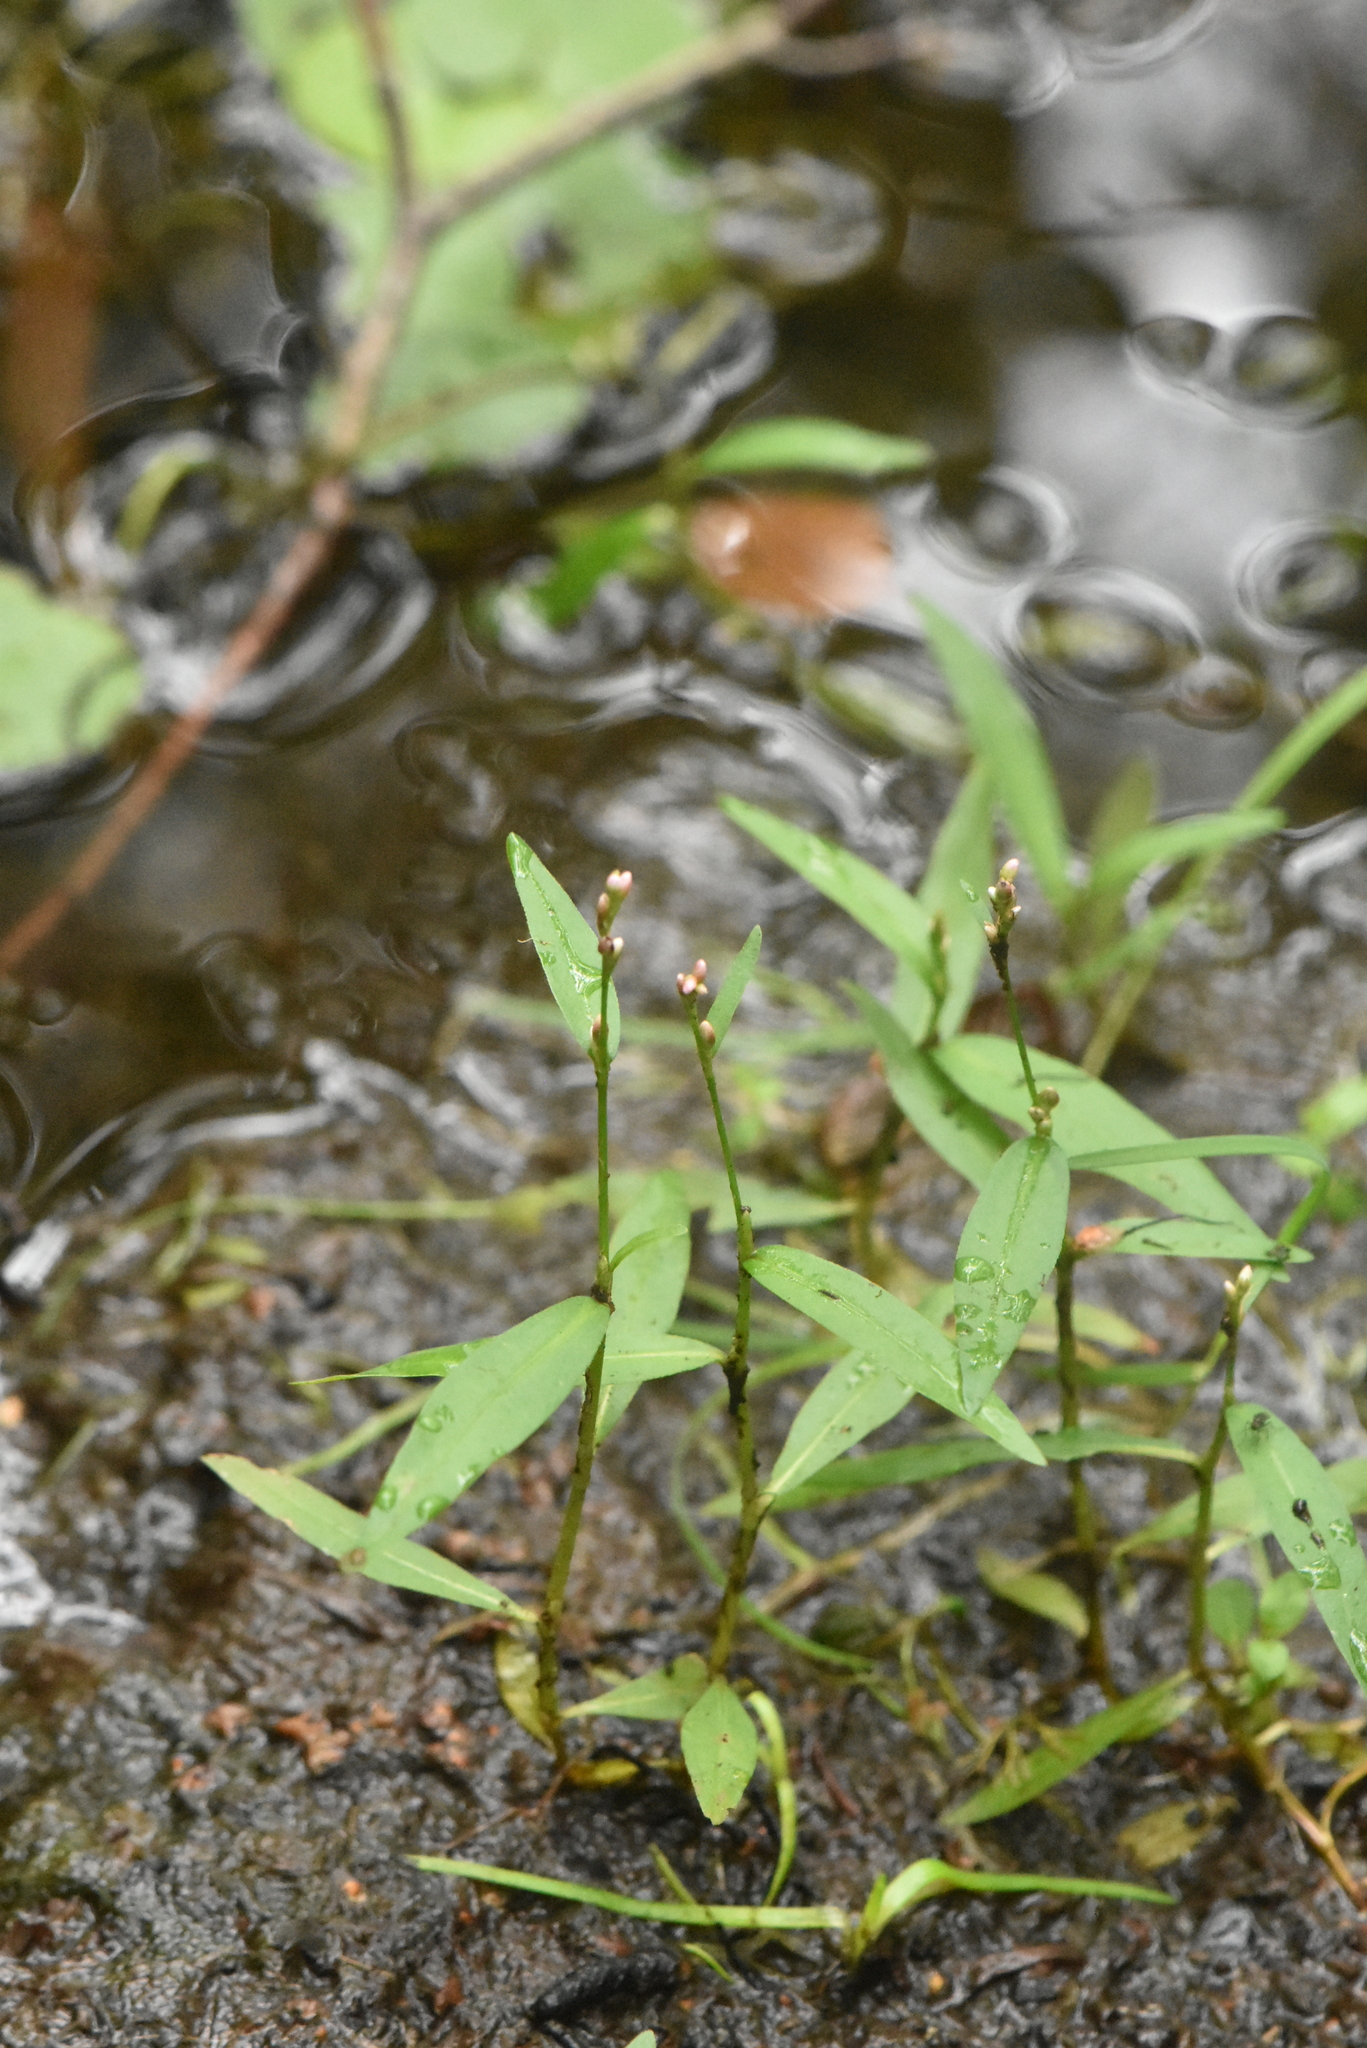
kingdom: Plantae
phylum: Tracheophyta
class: Magnoliopsida
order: Caryophyllales
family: Polygonaceae
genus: Persicaria
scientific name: Persicaria minor
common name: Small water-pepper
